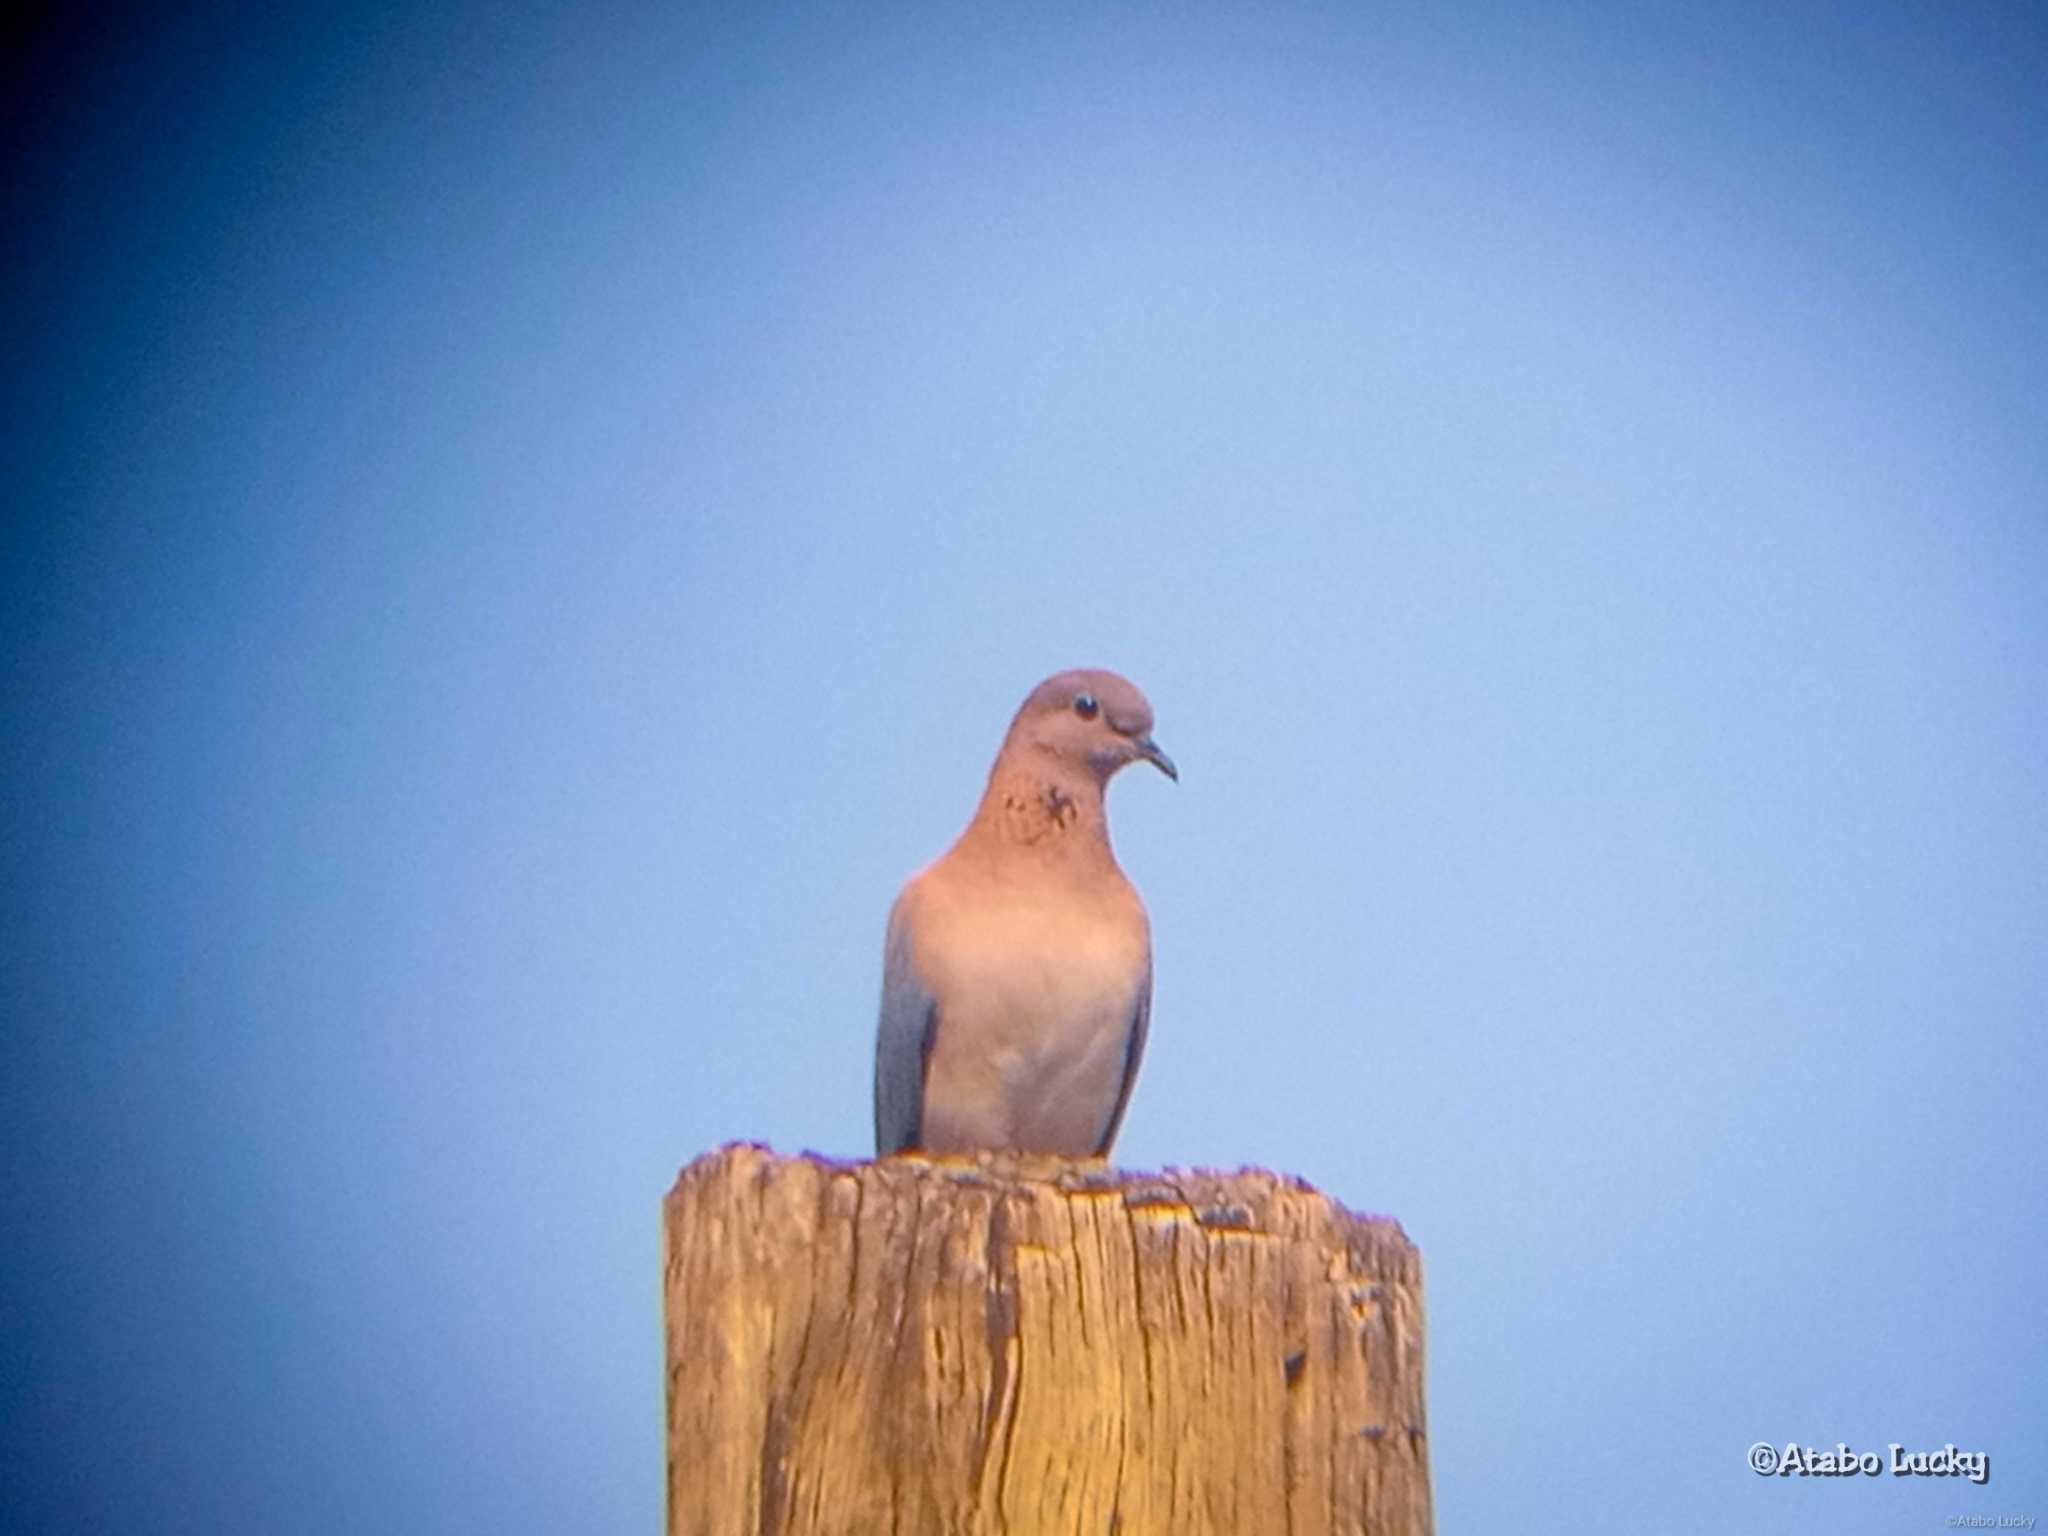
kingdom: Animalia
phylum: Chordata
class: Aves
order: Columbiformes
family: Columbidae
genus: Spilopelia
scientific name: Spilopelia senegalensis
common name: Laughing dove
